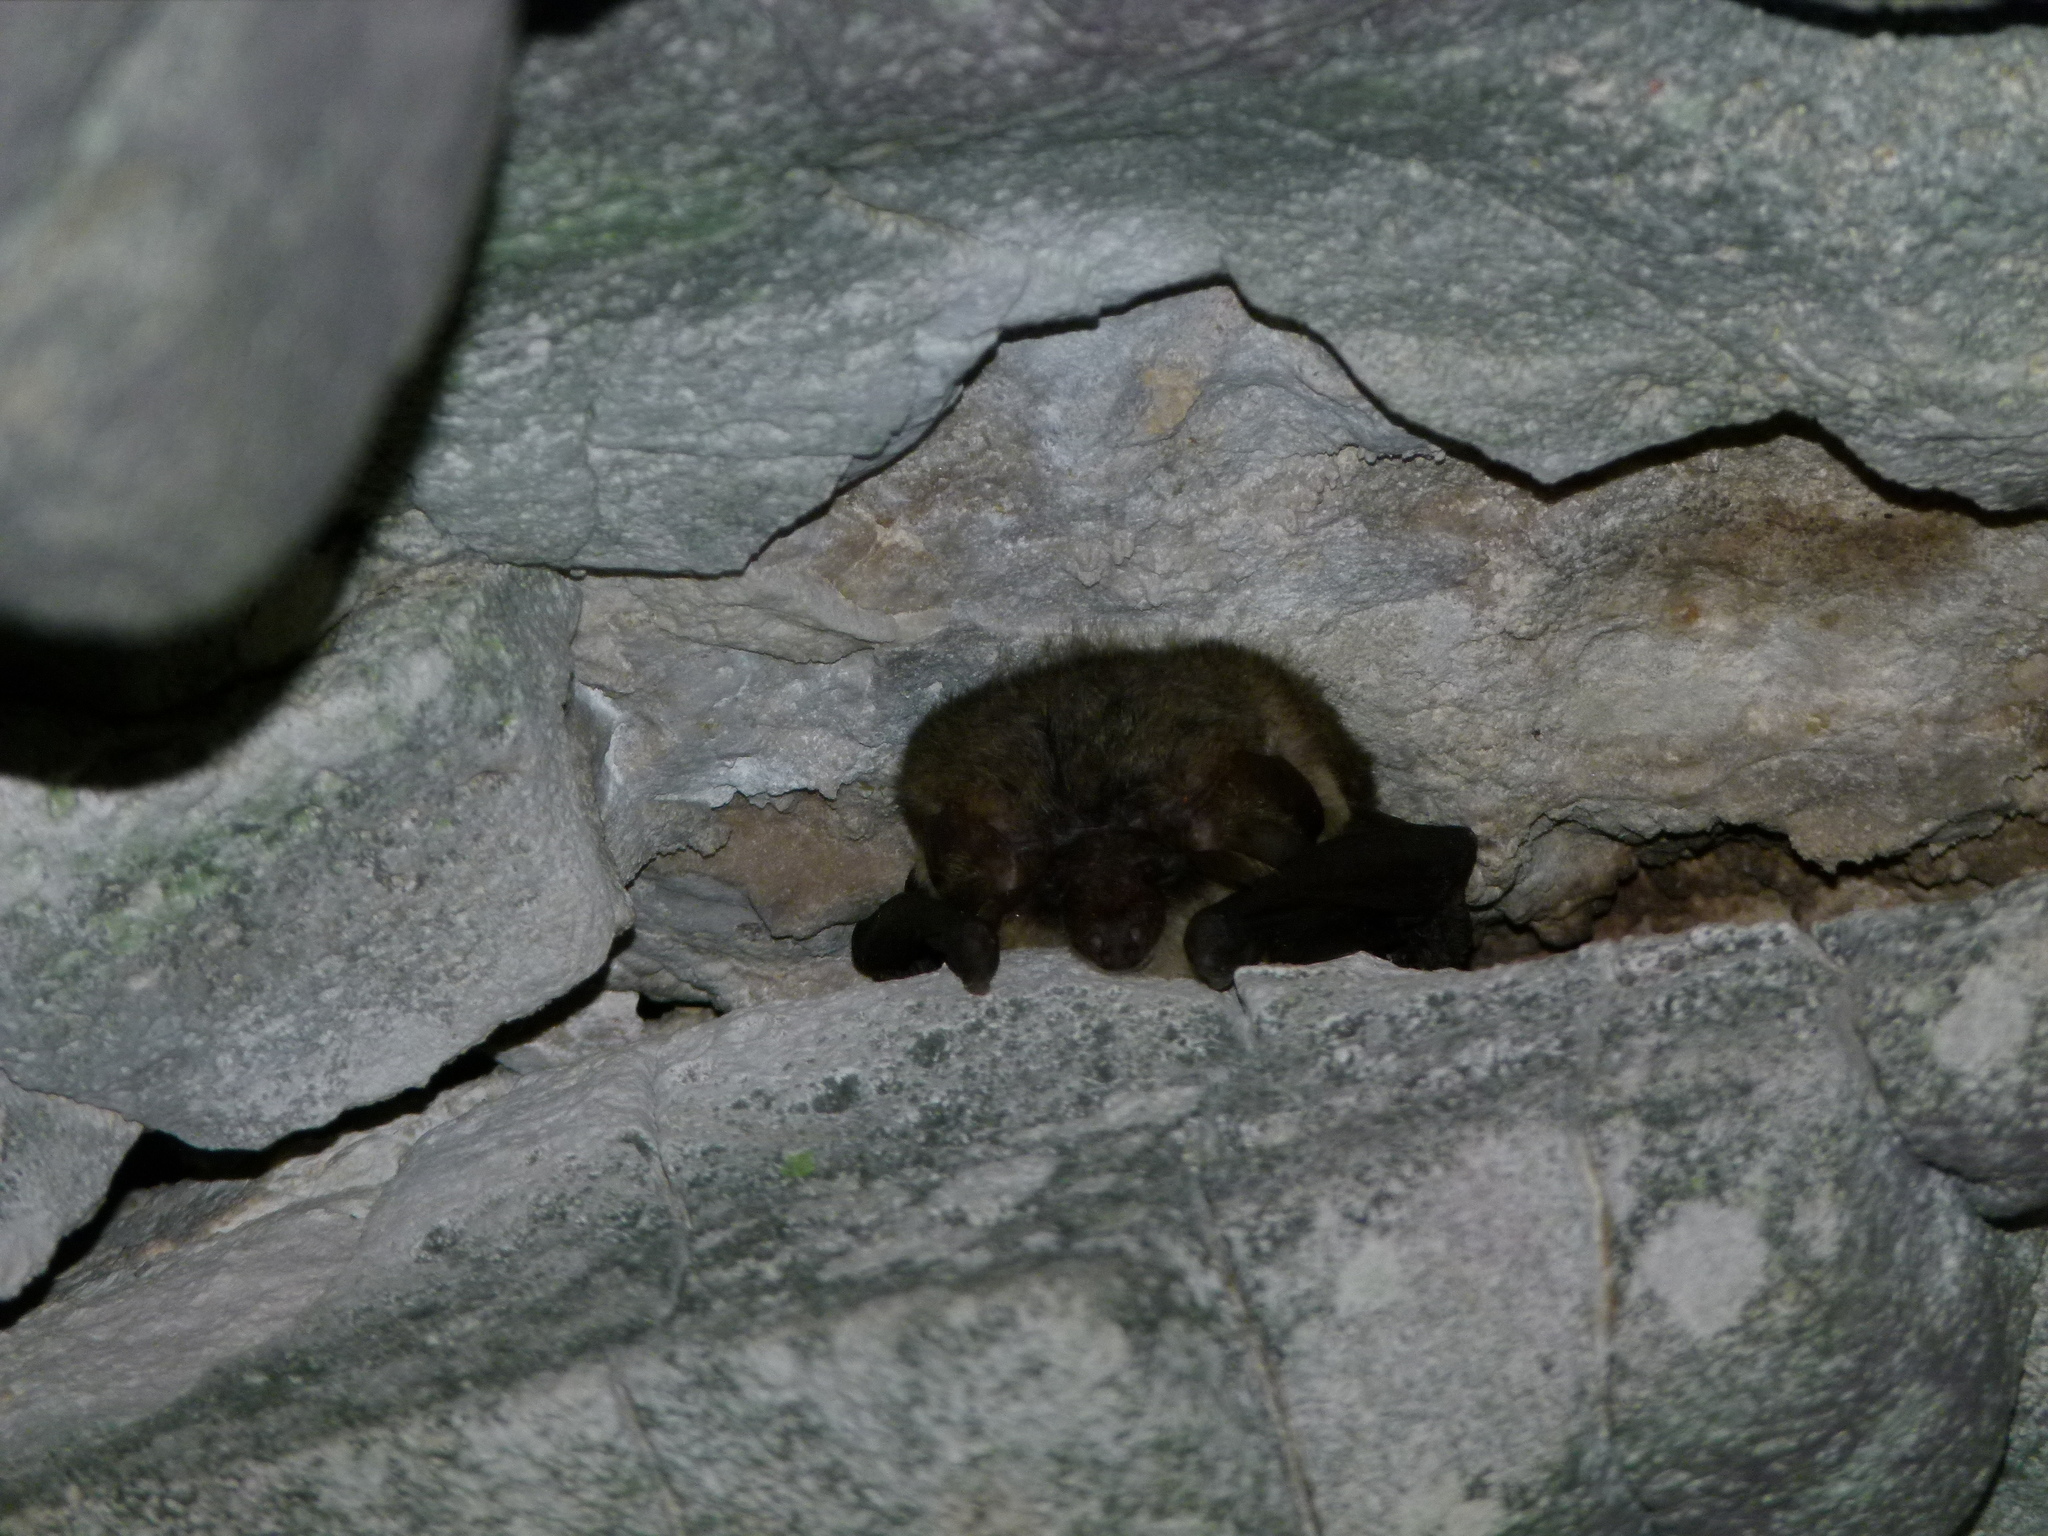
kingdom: Animalia
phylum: Chordata
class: Mammalia
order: Chiroptera
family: Vespertilionidae
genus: Plecotus
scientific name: Plecotus austriacus
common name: Grey long-eared bat
